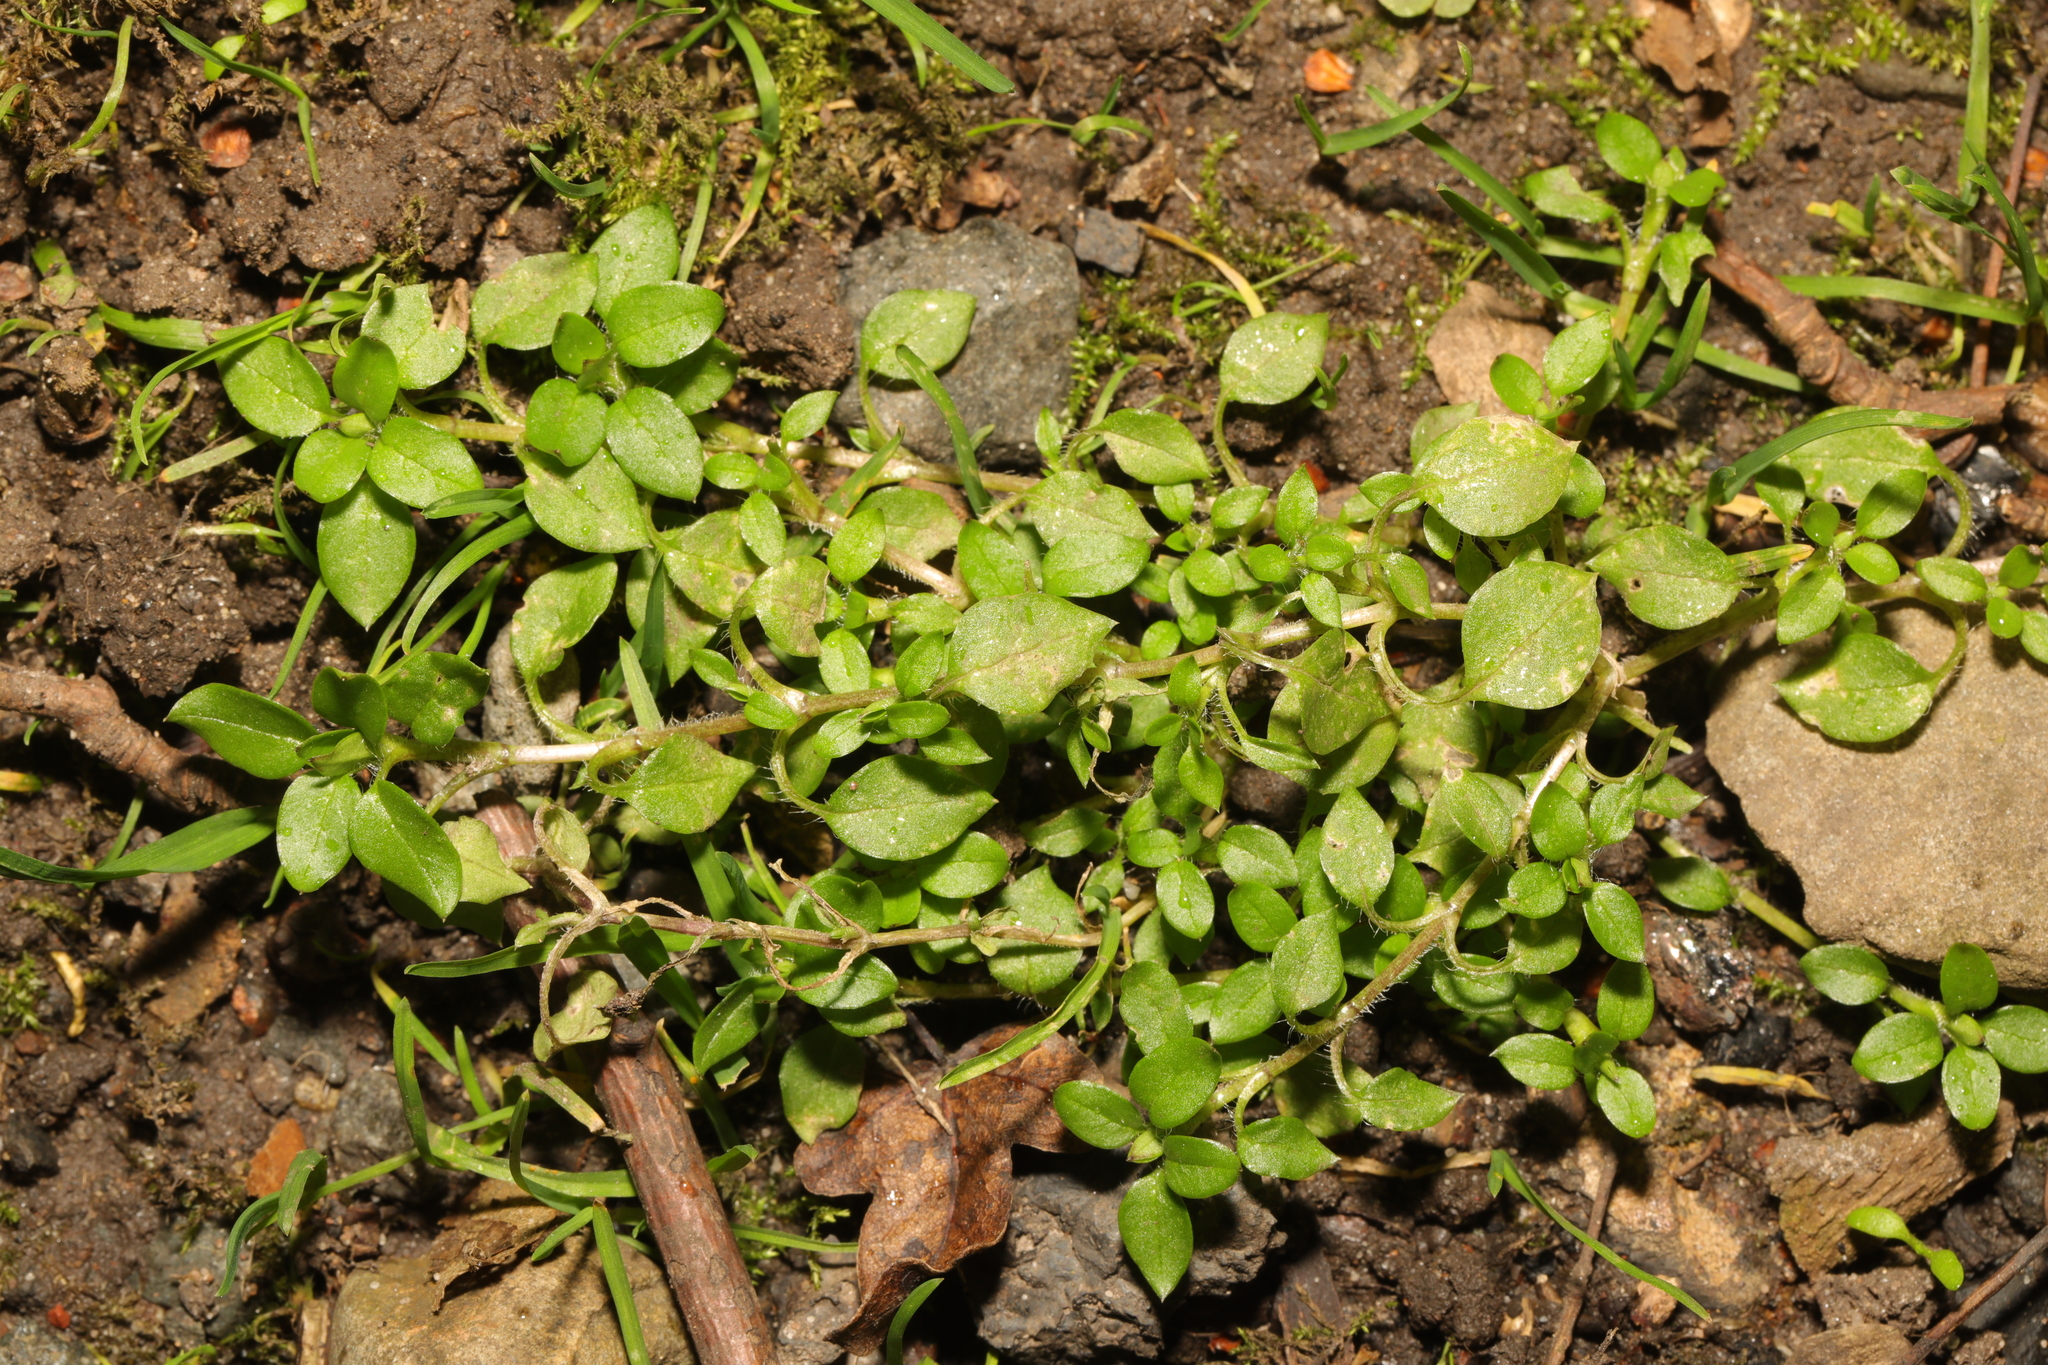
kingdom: Plantae
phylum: Tracheophyta
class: Magnoliopsida
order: Caryophyllales
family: Caryophyllaceae
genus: Stellaria
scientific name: Stellaria media
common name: Common chickweed
